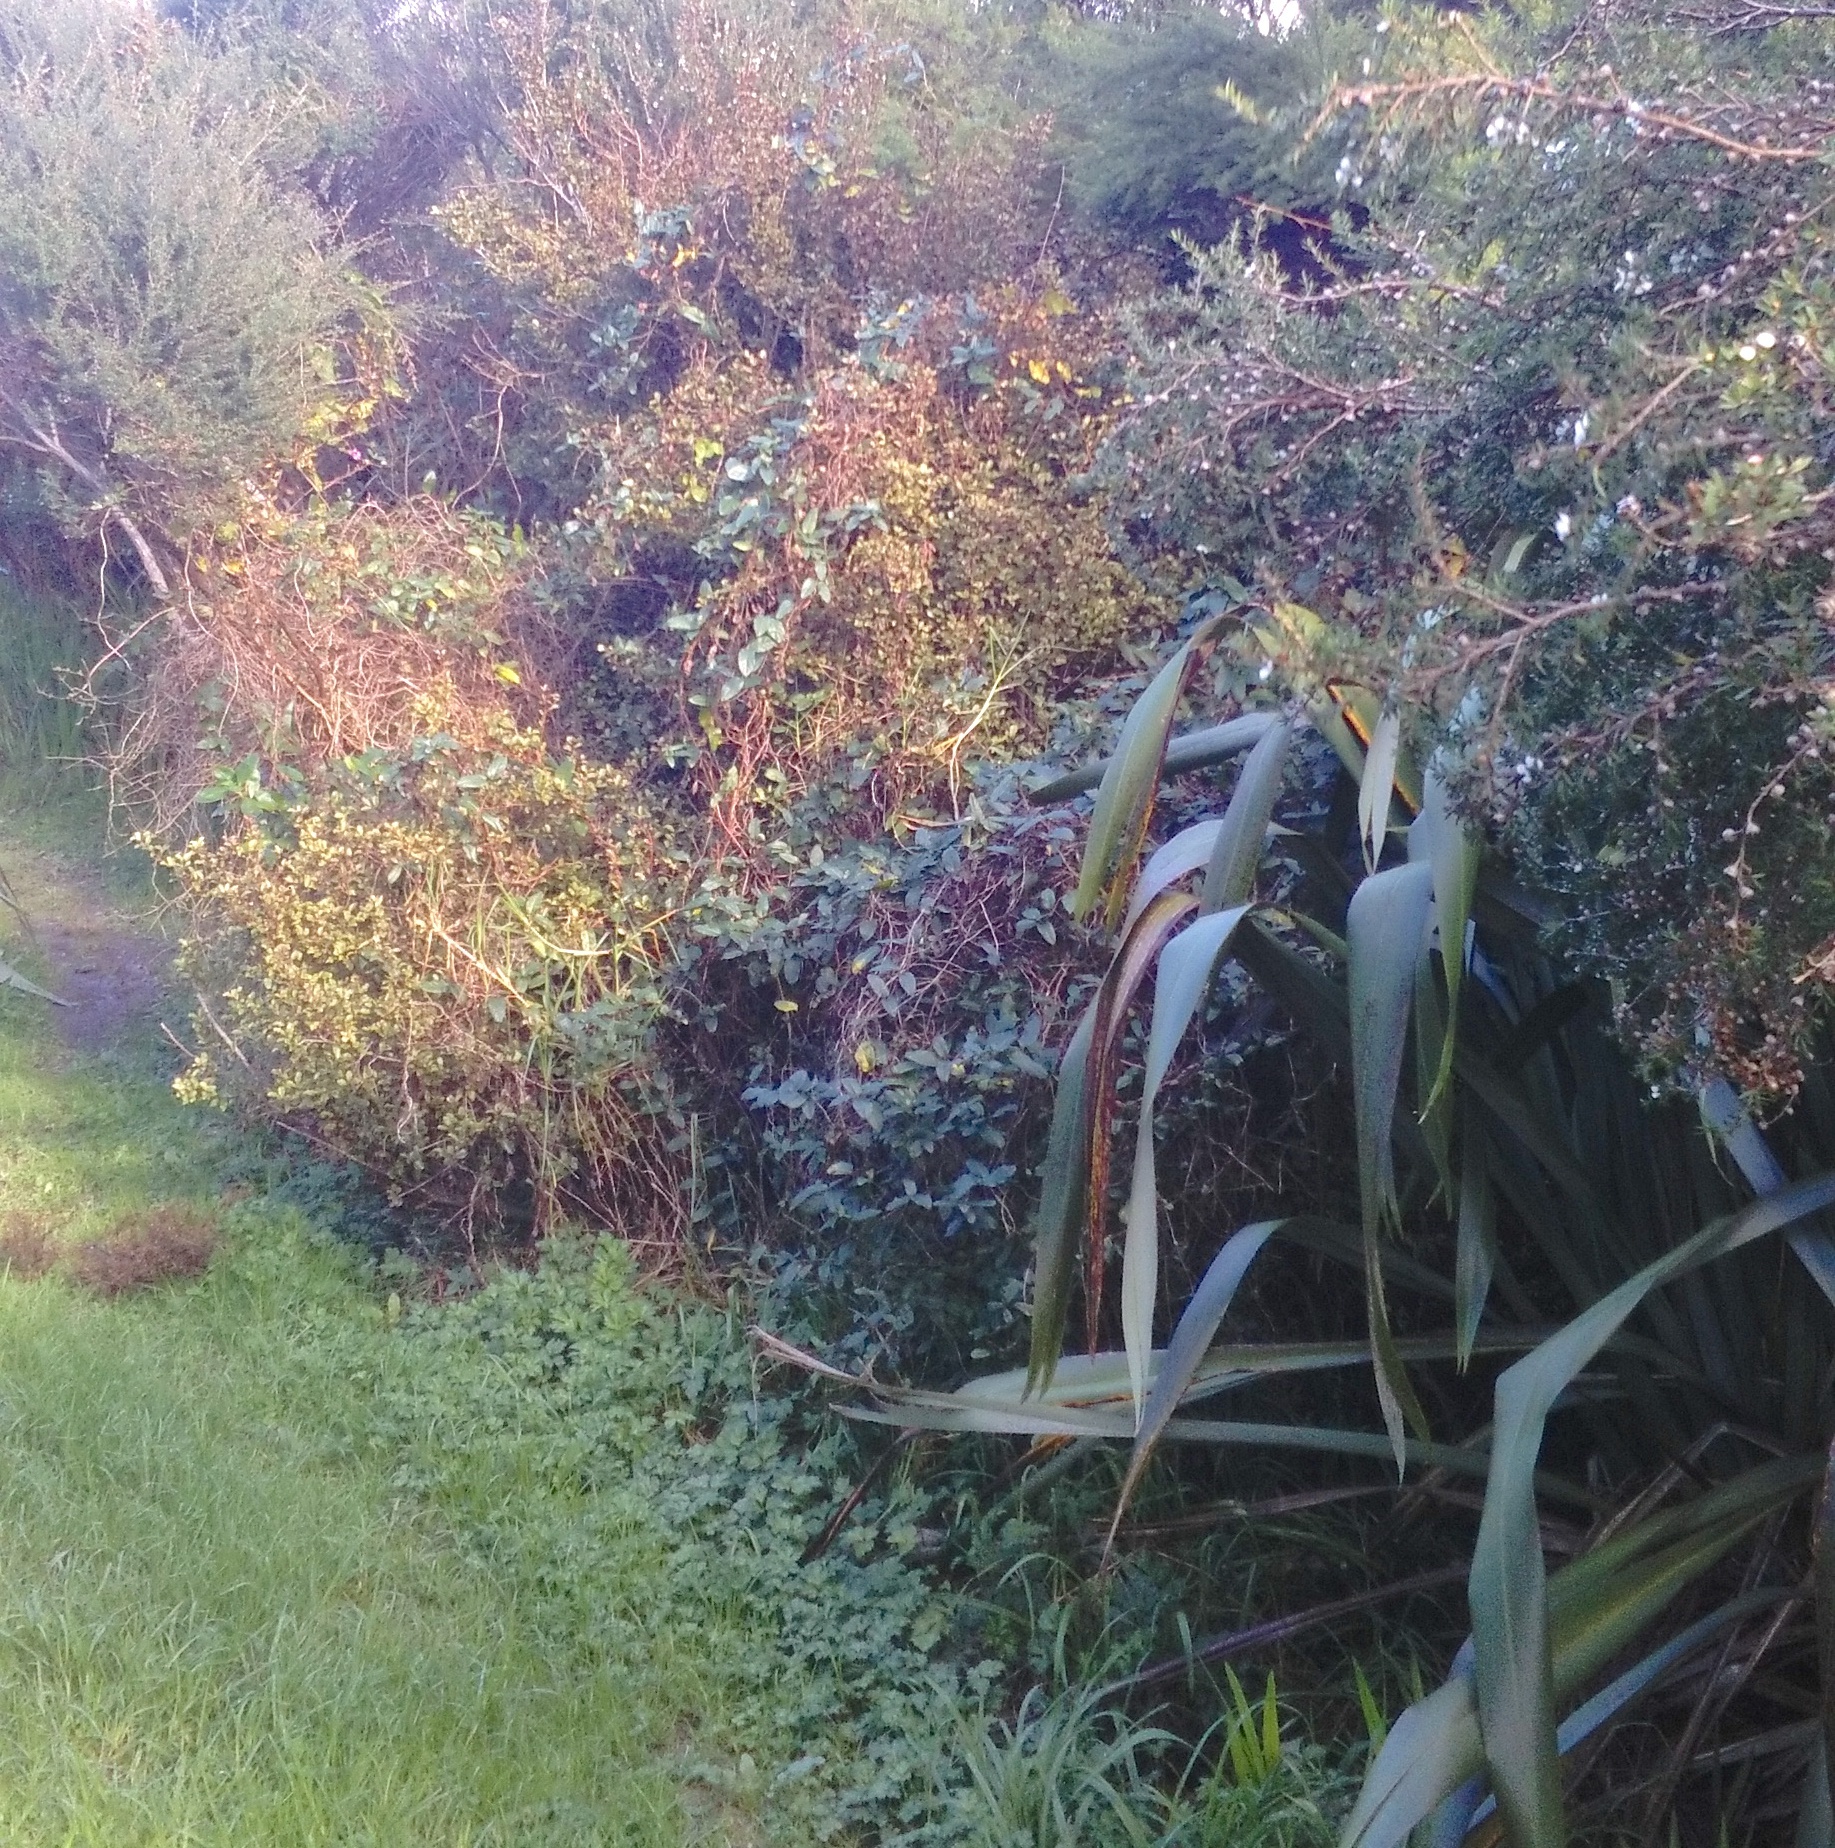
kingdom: Plantae
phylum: Tracheophyta
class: Magnoliopsida
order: Ericales
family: Primulaceae
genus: Myrsine
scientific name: Myrsine australis
